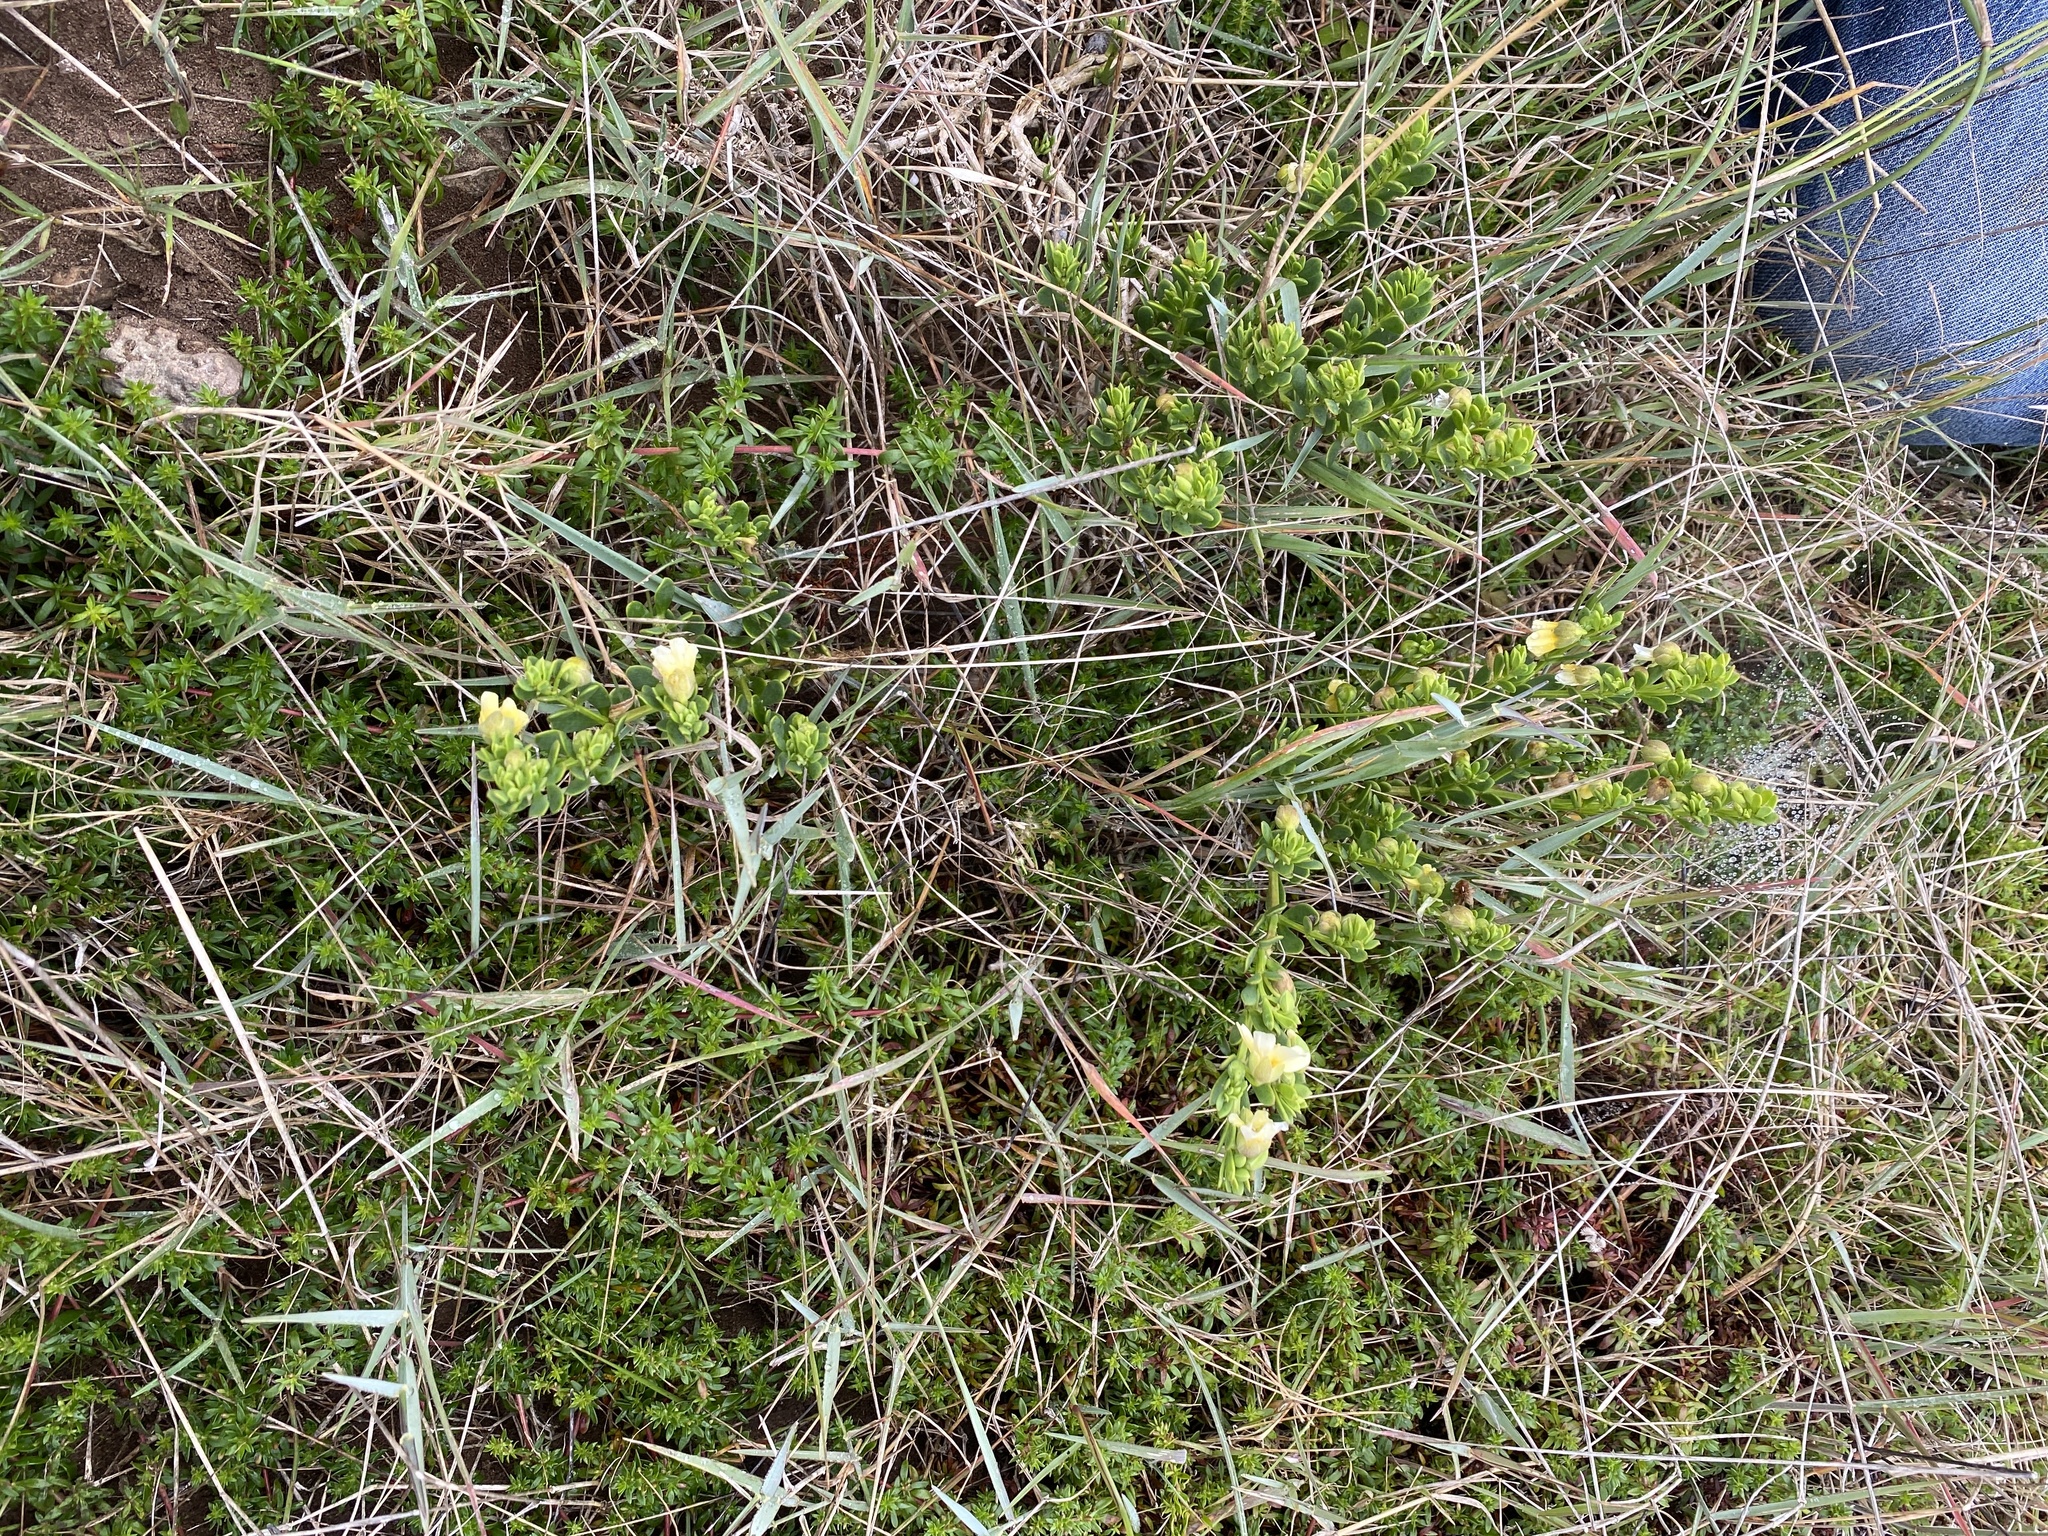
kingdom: Plantae
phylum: Tracheophyta
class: Magnoliopsida
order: Zygophyllales
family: Zygophyllaceae
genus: Roepera
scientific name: Roepera maritima
